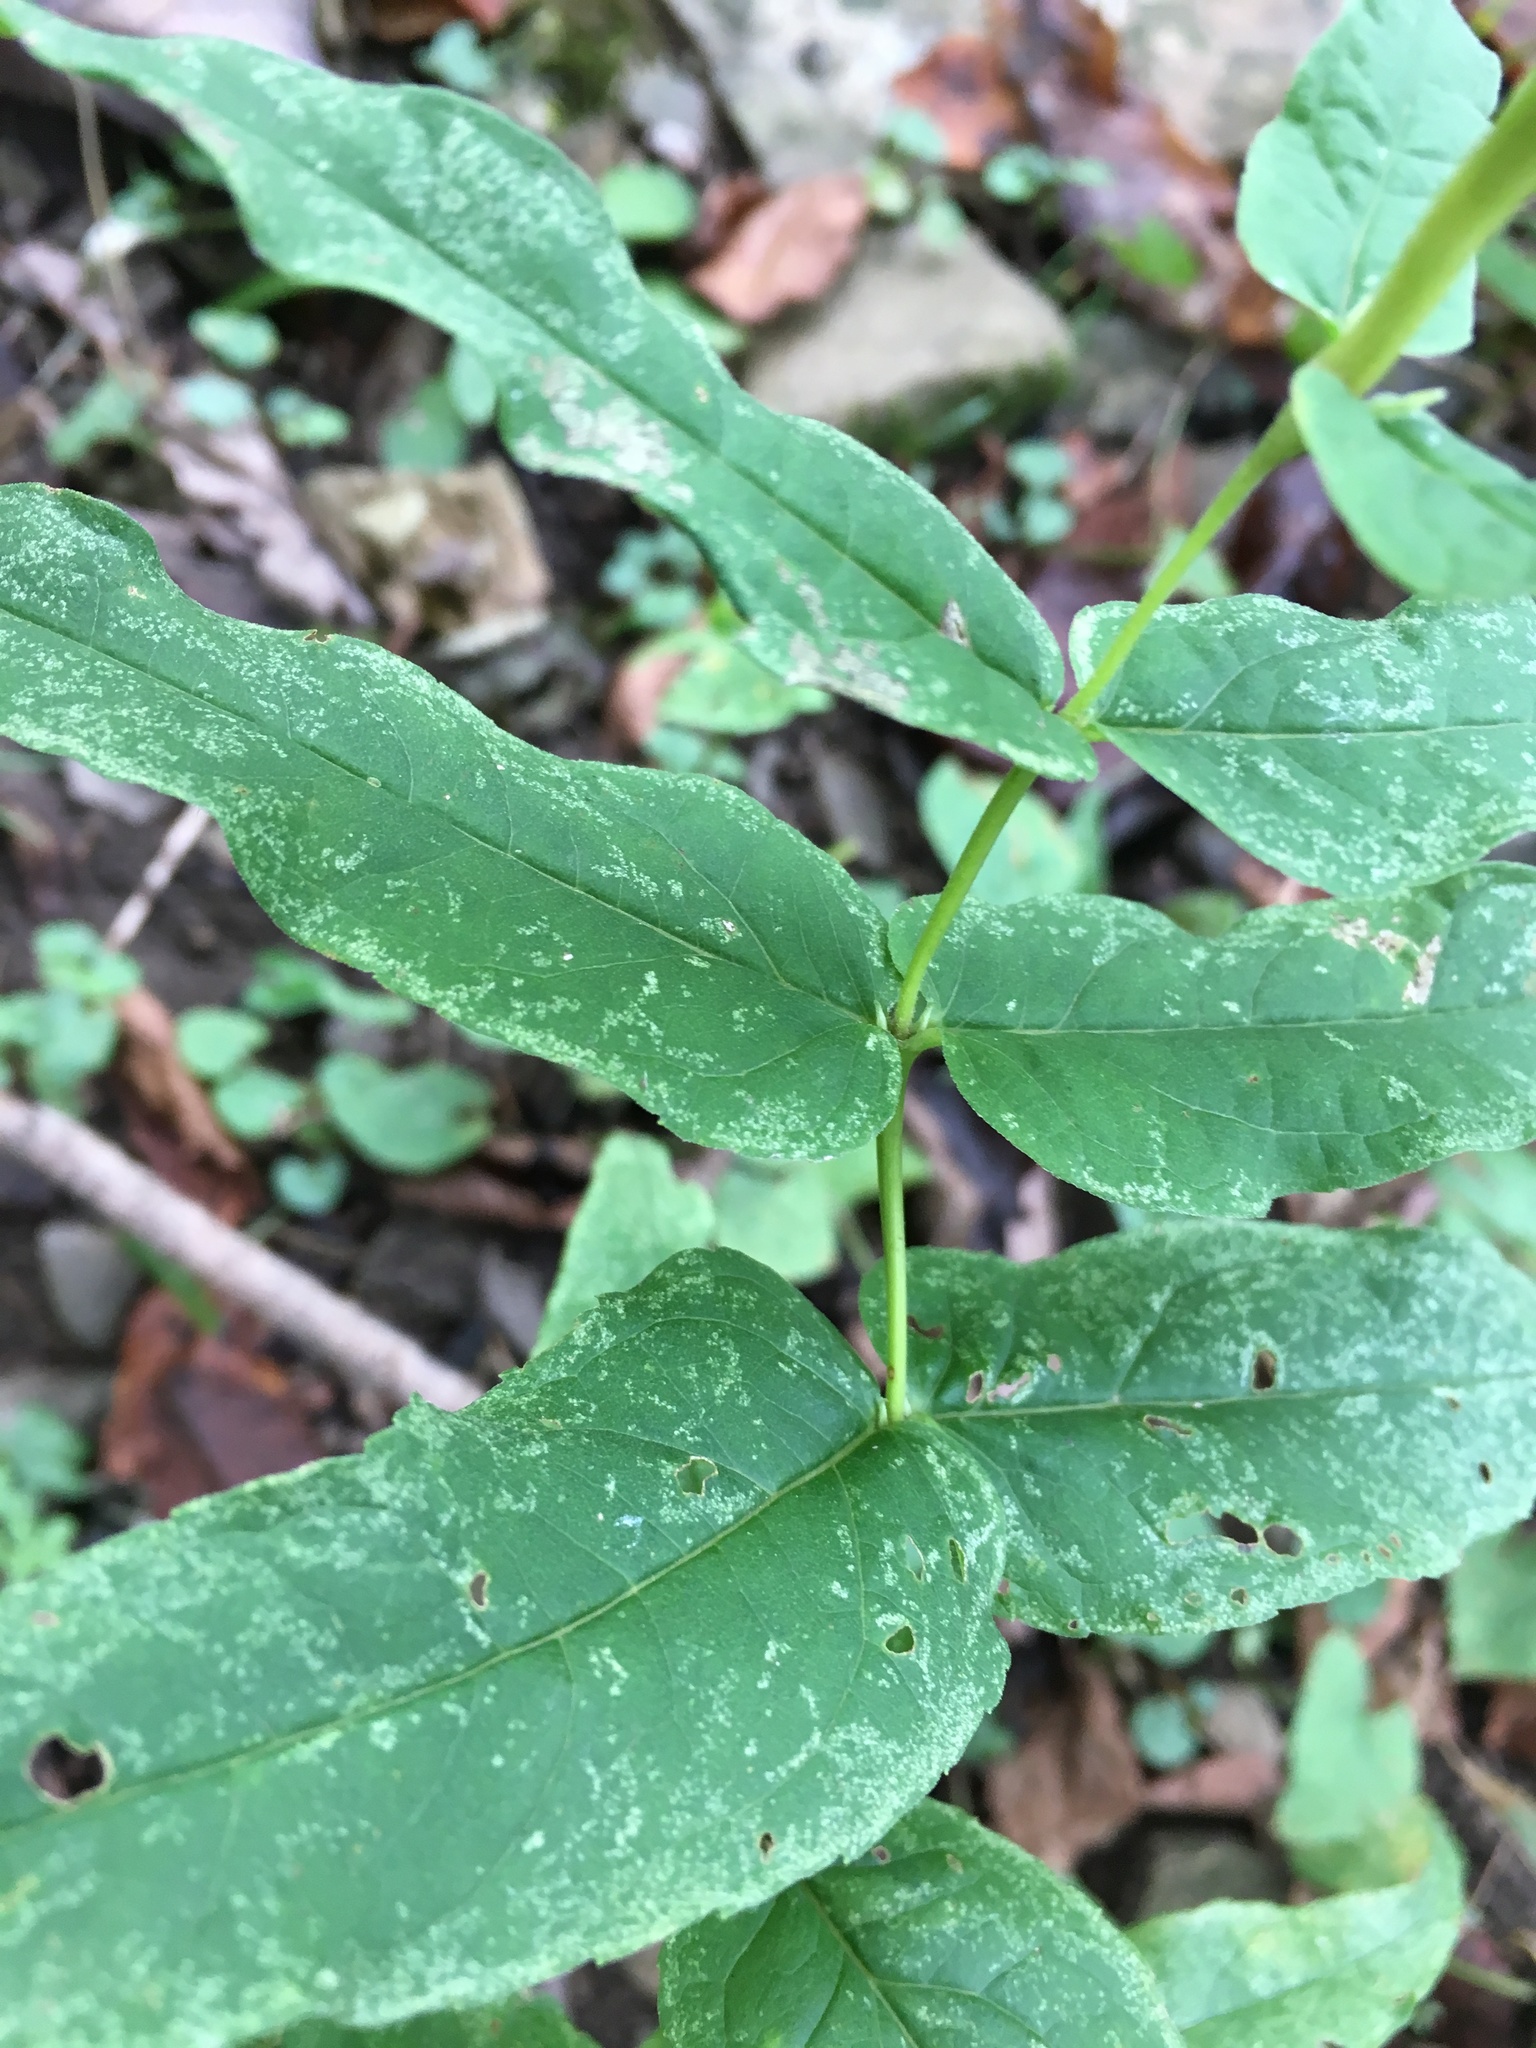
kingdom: Plantae
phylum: Tracheophyta
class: Magnoliopsida
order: Asterales
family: Asteraceae
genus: Eupatorium
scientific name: Eupatorium sessilifolium
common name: Upland boneset
